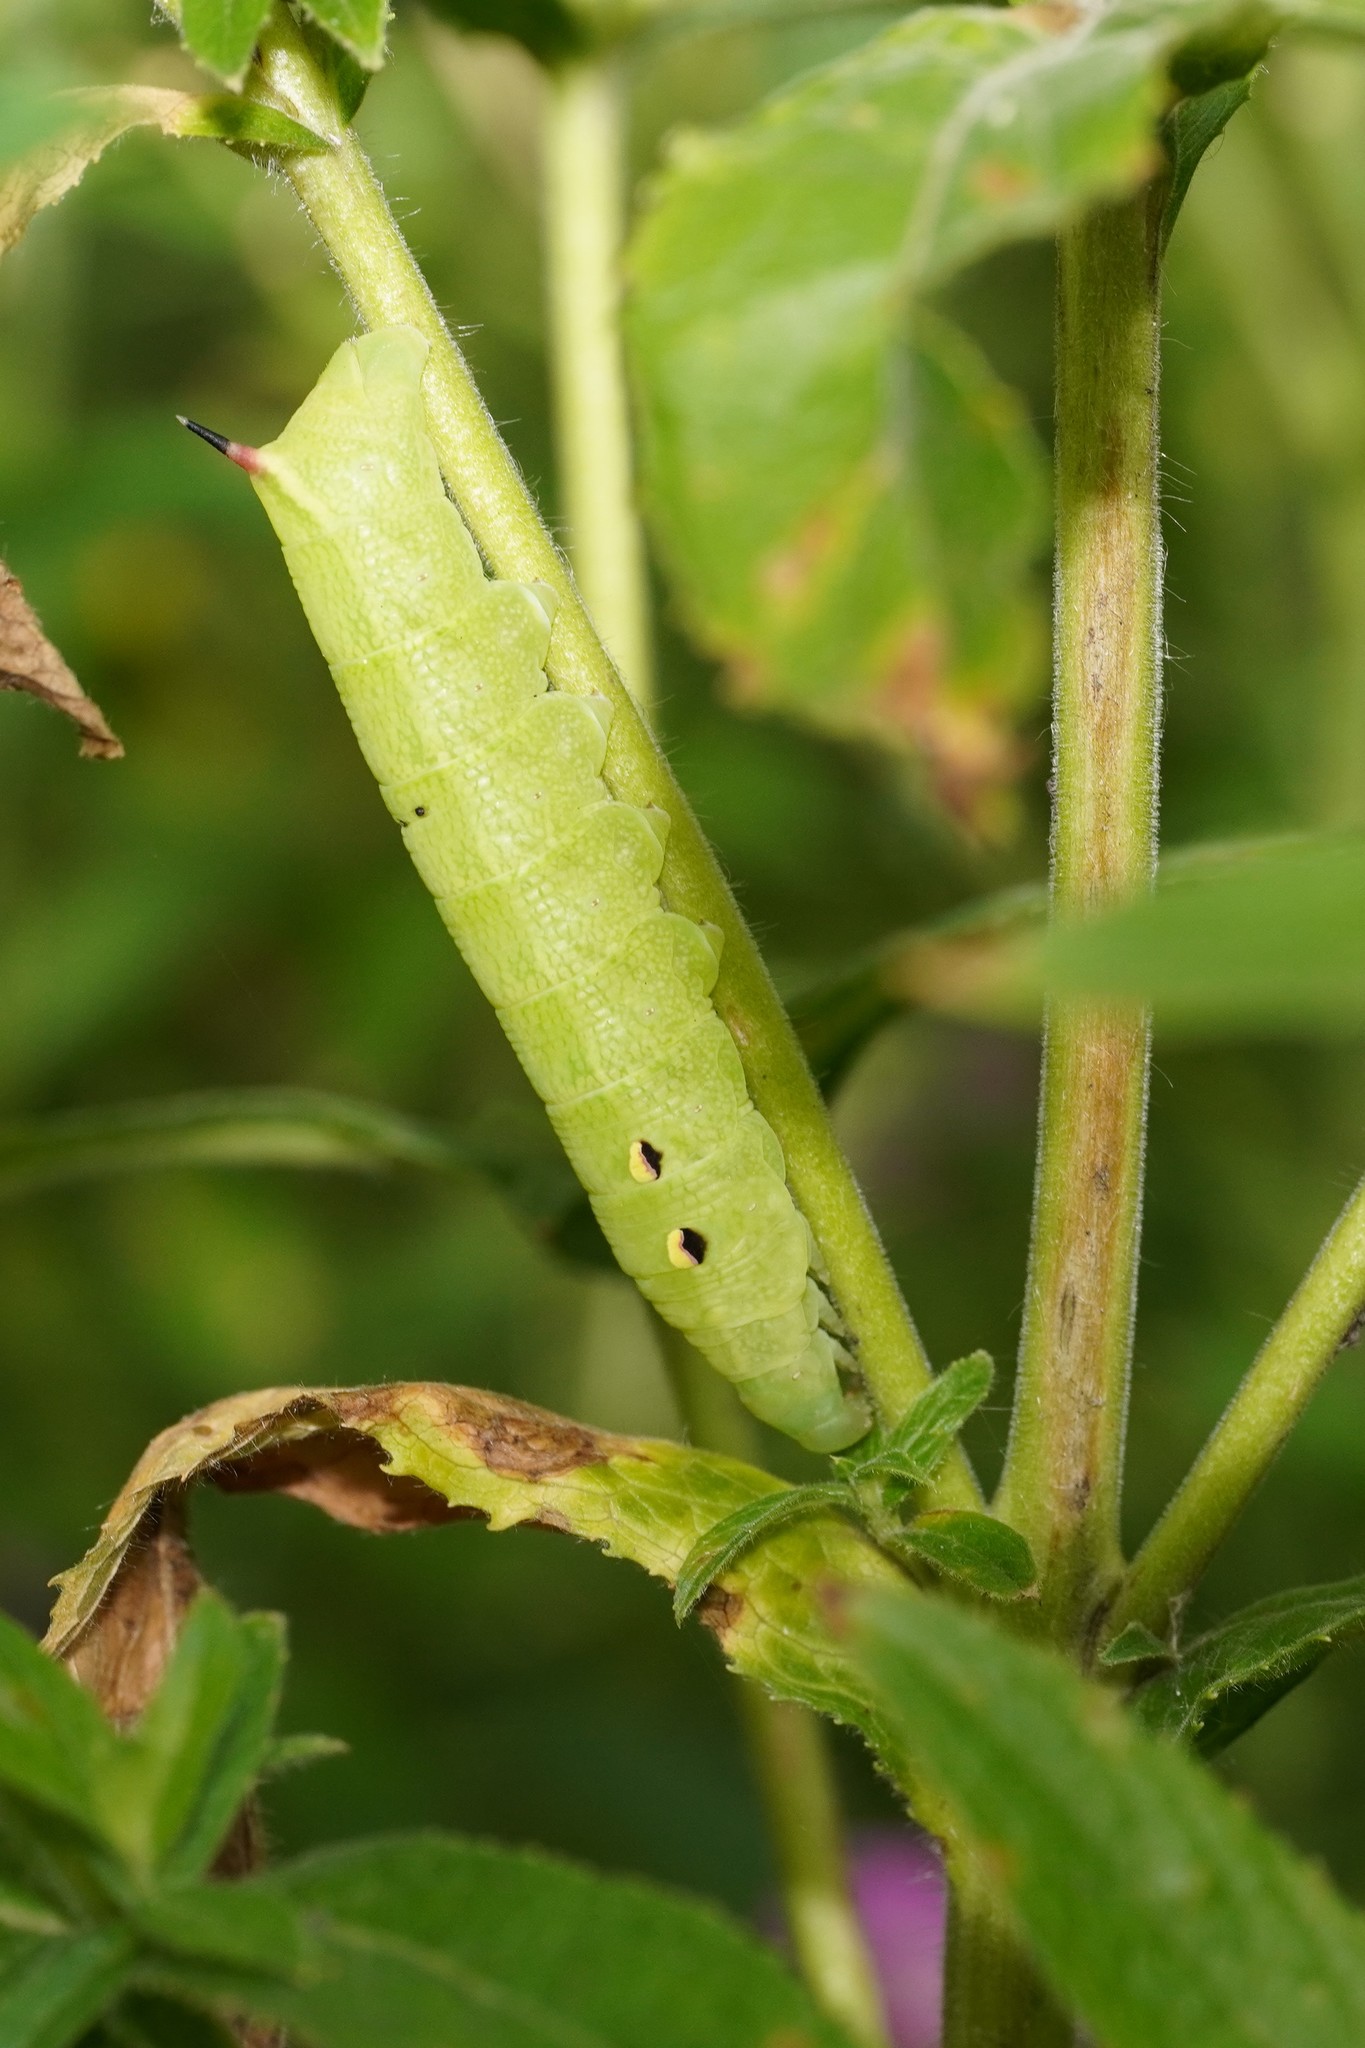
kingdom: Animalia
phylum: Arthropoda
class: Insecta
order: Lepidoptera
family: Sphingidae
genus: Deilephila
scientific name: Deilephila elpenor
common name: Elephant hawk-moth
